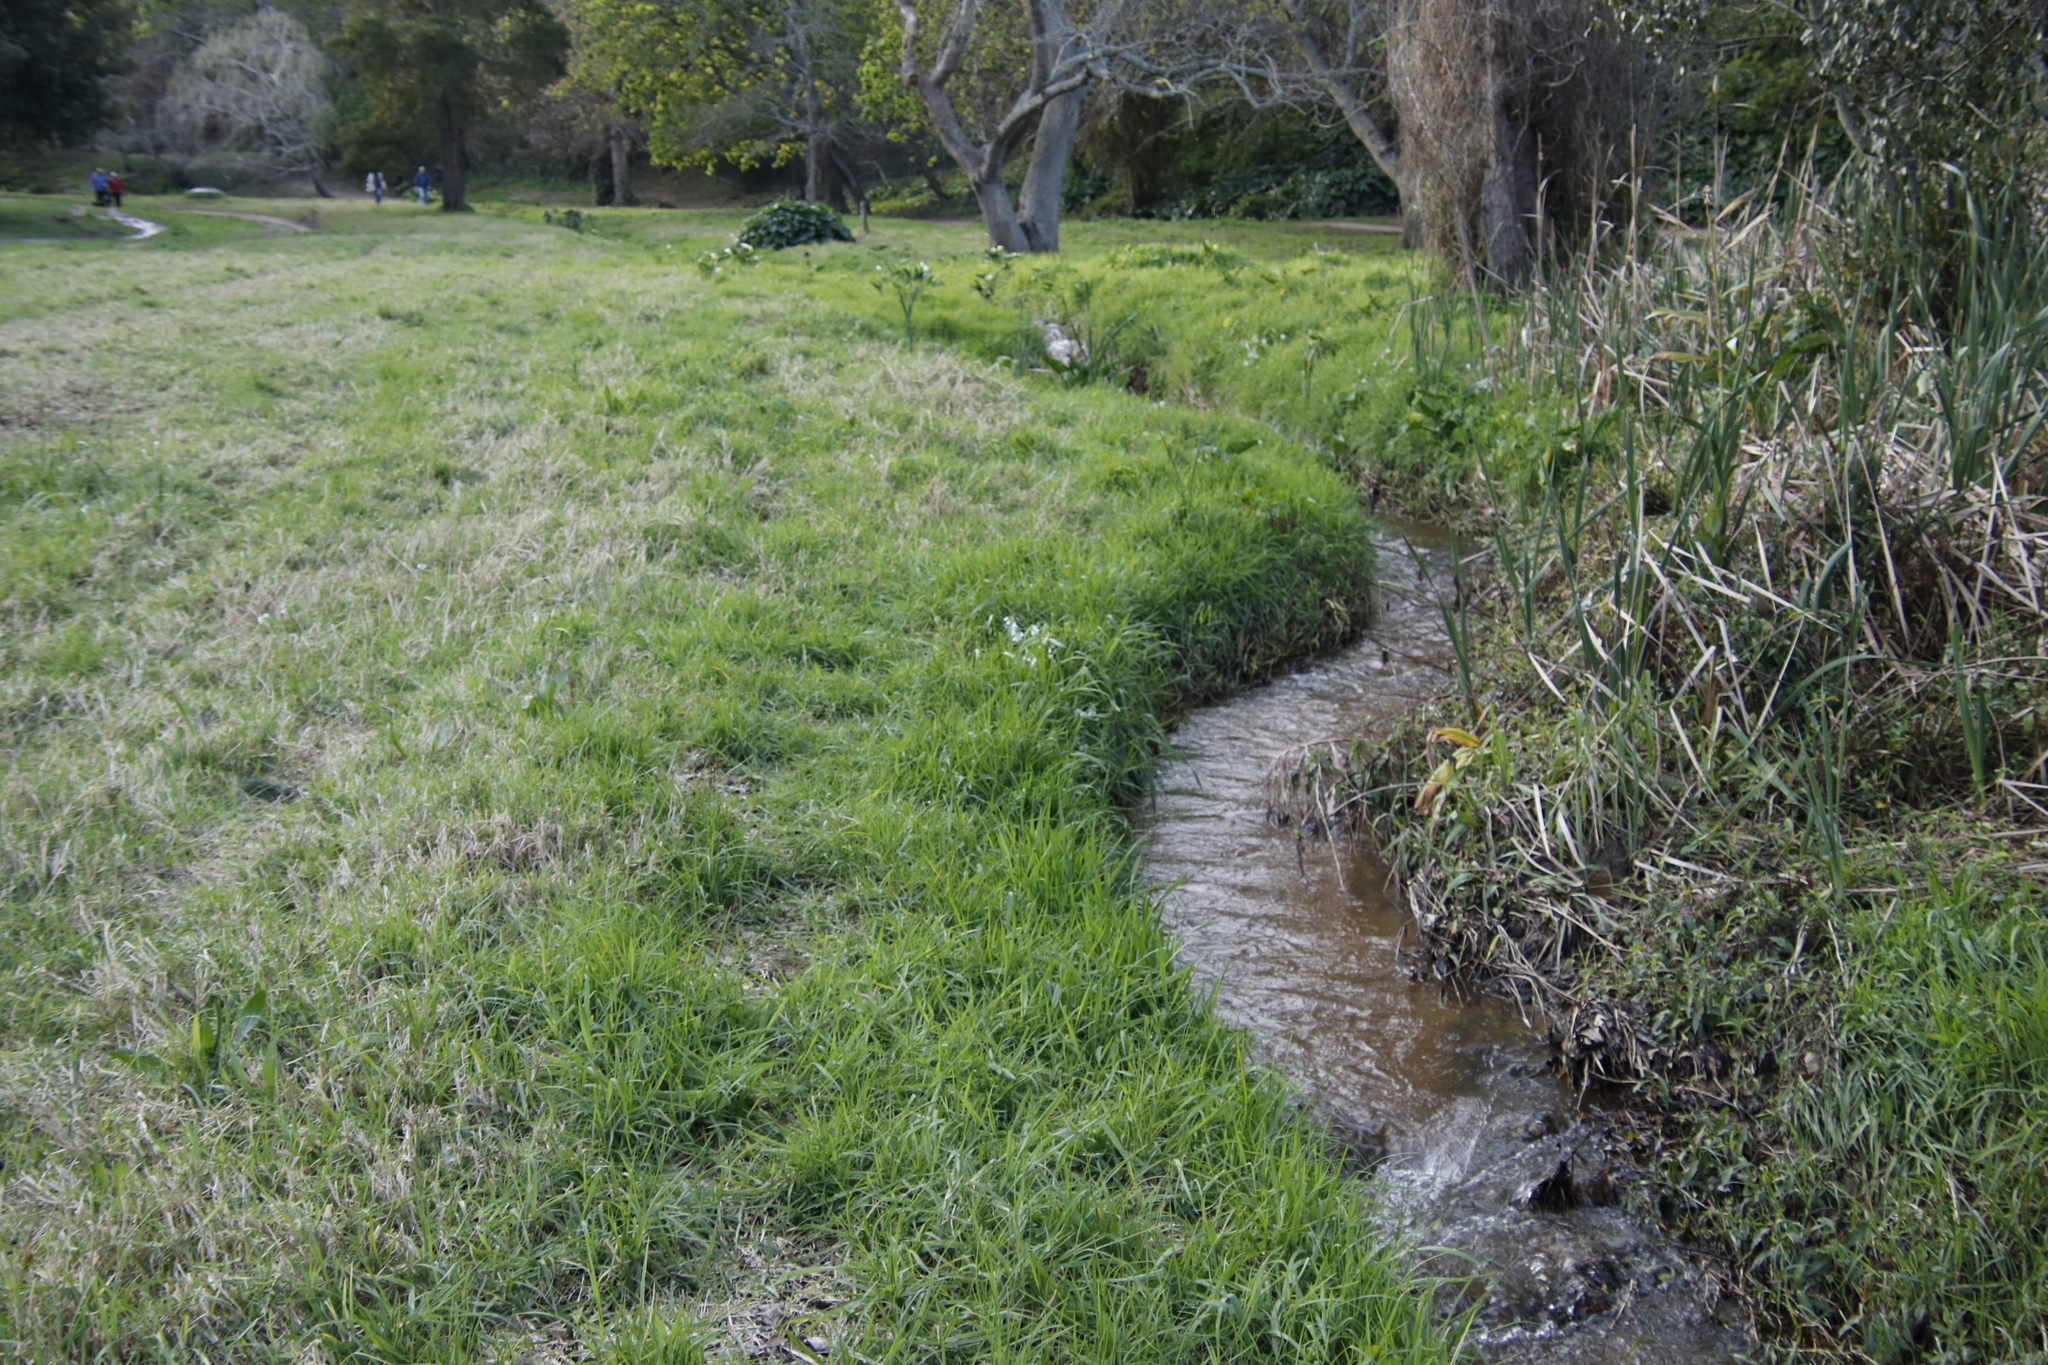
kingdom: Plantae
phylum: Tracheophyta
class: Liliopsida
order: Asparagales
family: Amaryllidaceae
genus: Allium
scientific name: Allium triquetrum
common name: Three-cornered garlic
